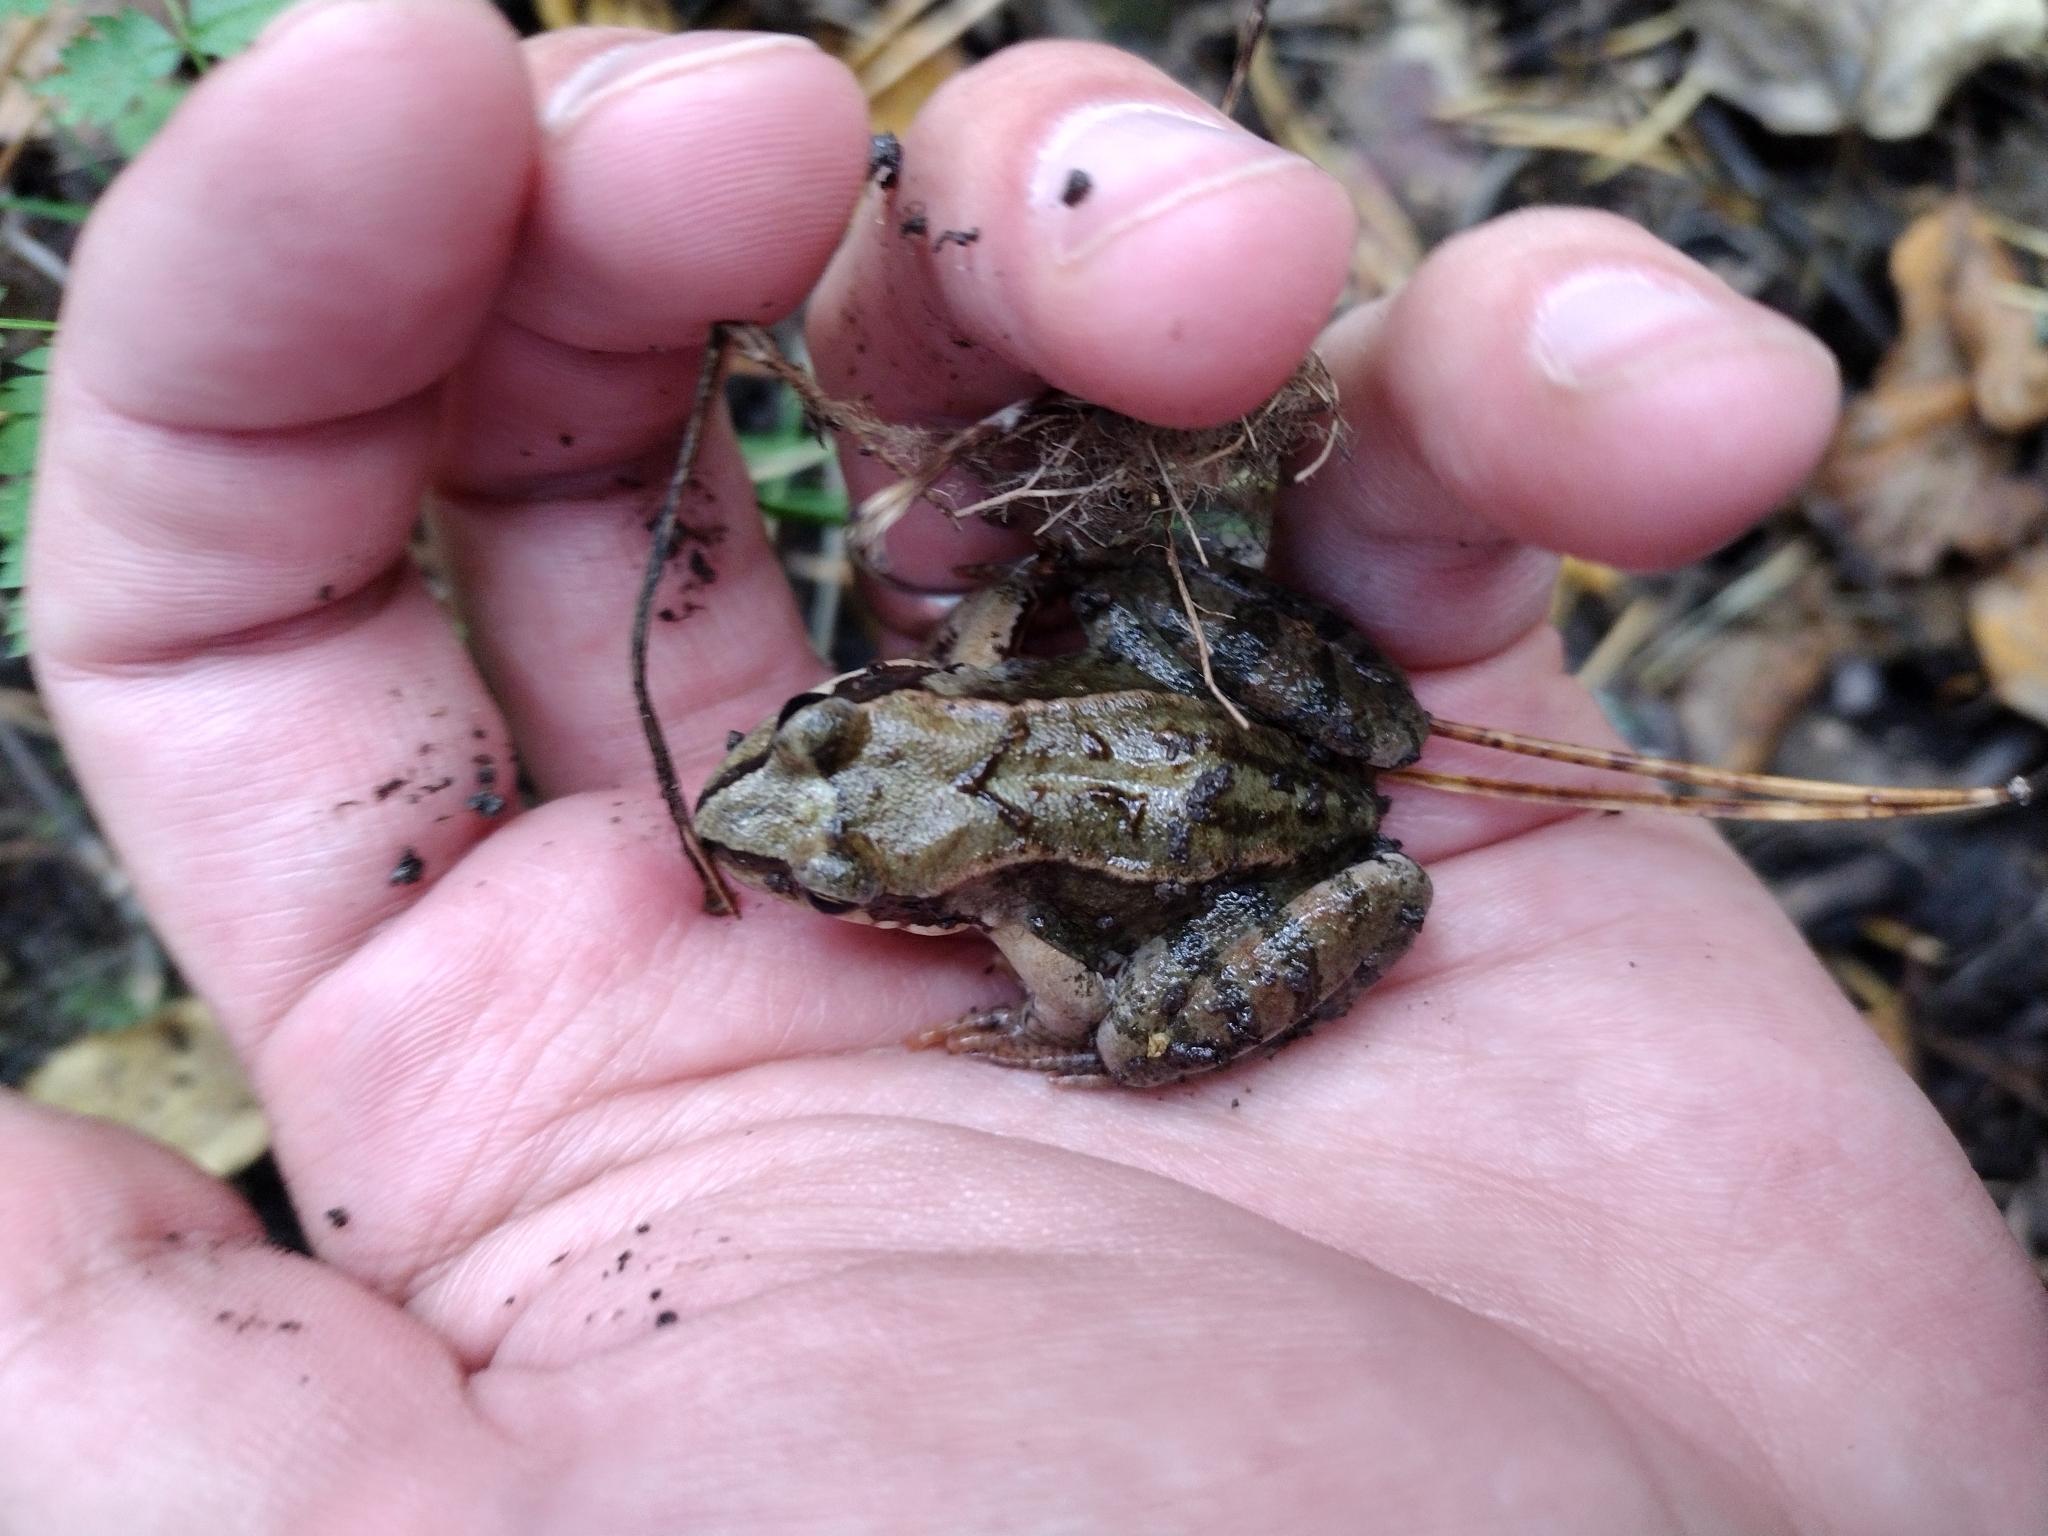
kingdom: Animalia
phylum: Chordata
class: Amphibia
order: Anura
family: Ranidae
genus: Rana
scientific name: Rana temporaria
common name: Common frog
